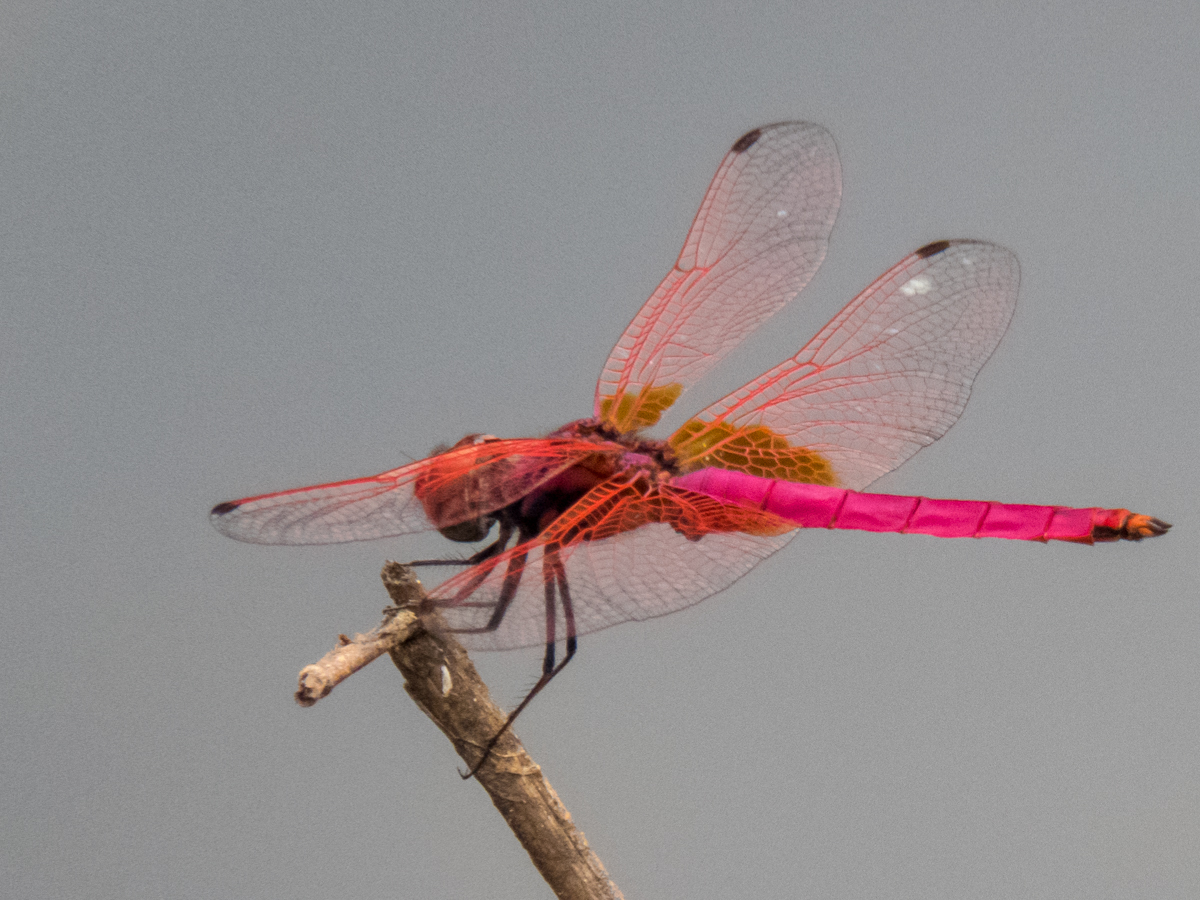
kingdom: Animalia
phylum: Arthropoda
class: Insecta
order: Odonata
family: Libellulidae
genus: Trithemis
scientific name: Trithemis aurora
